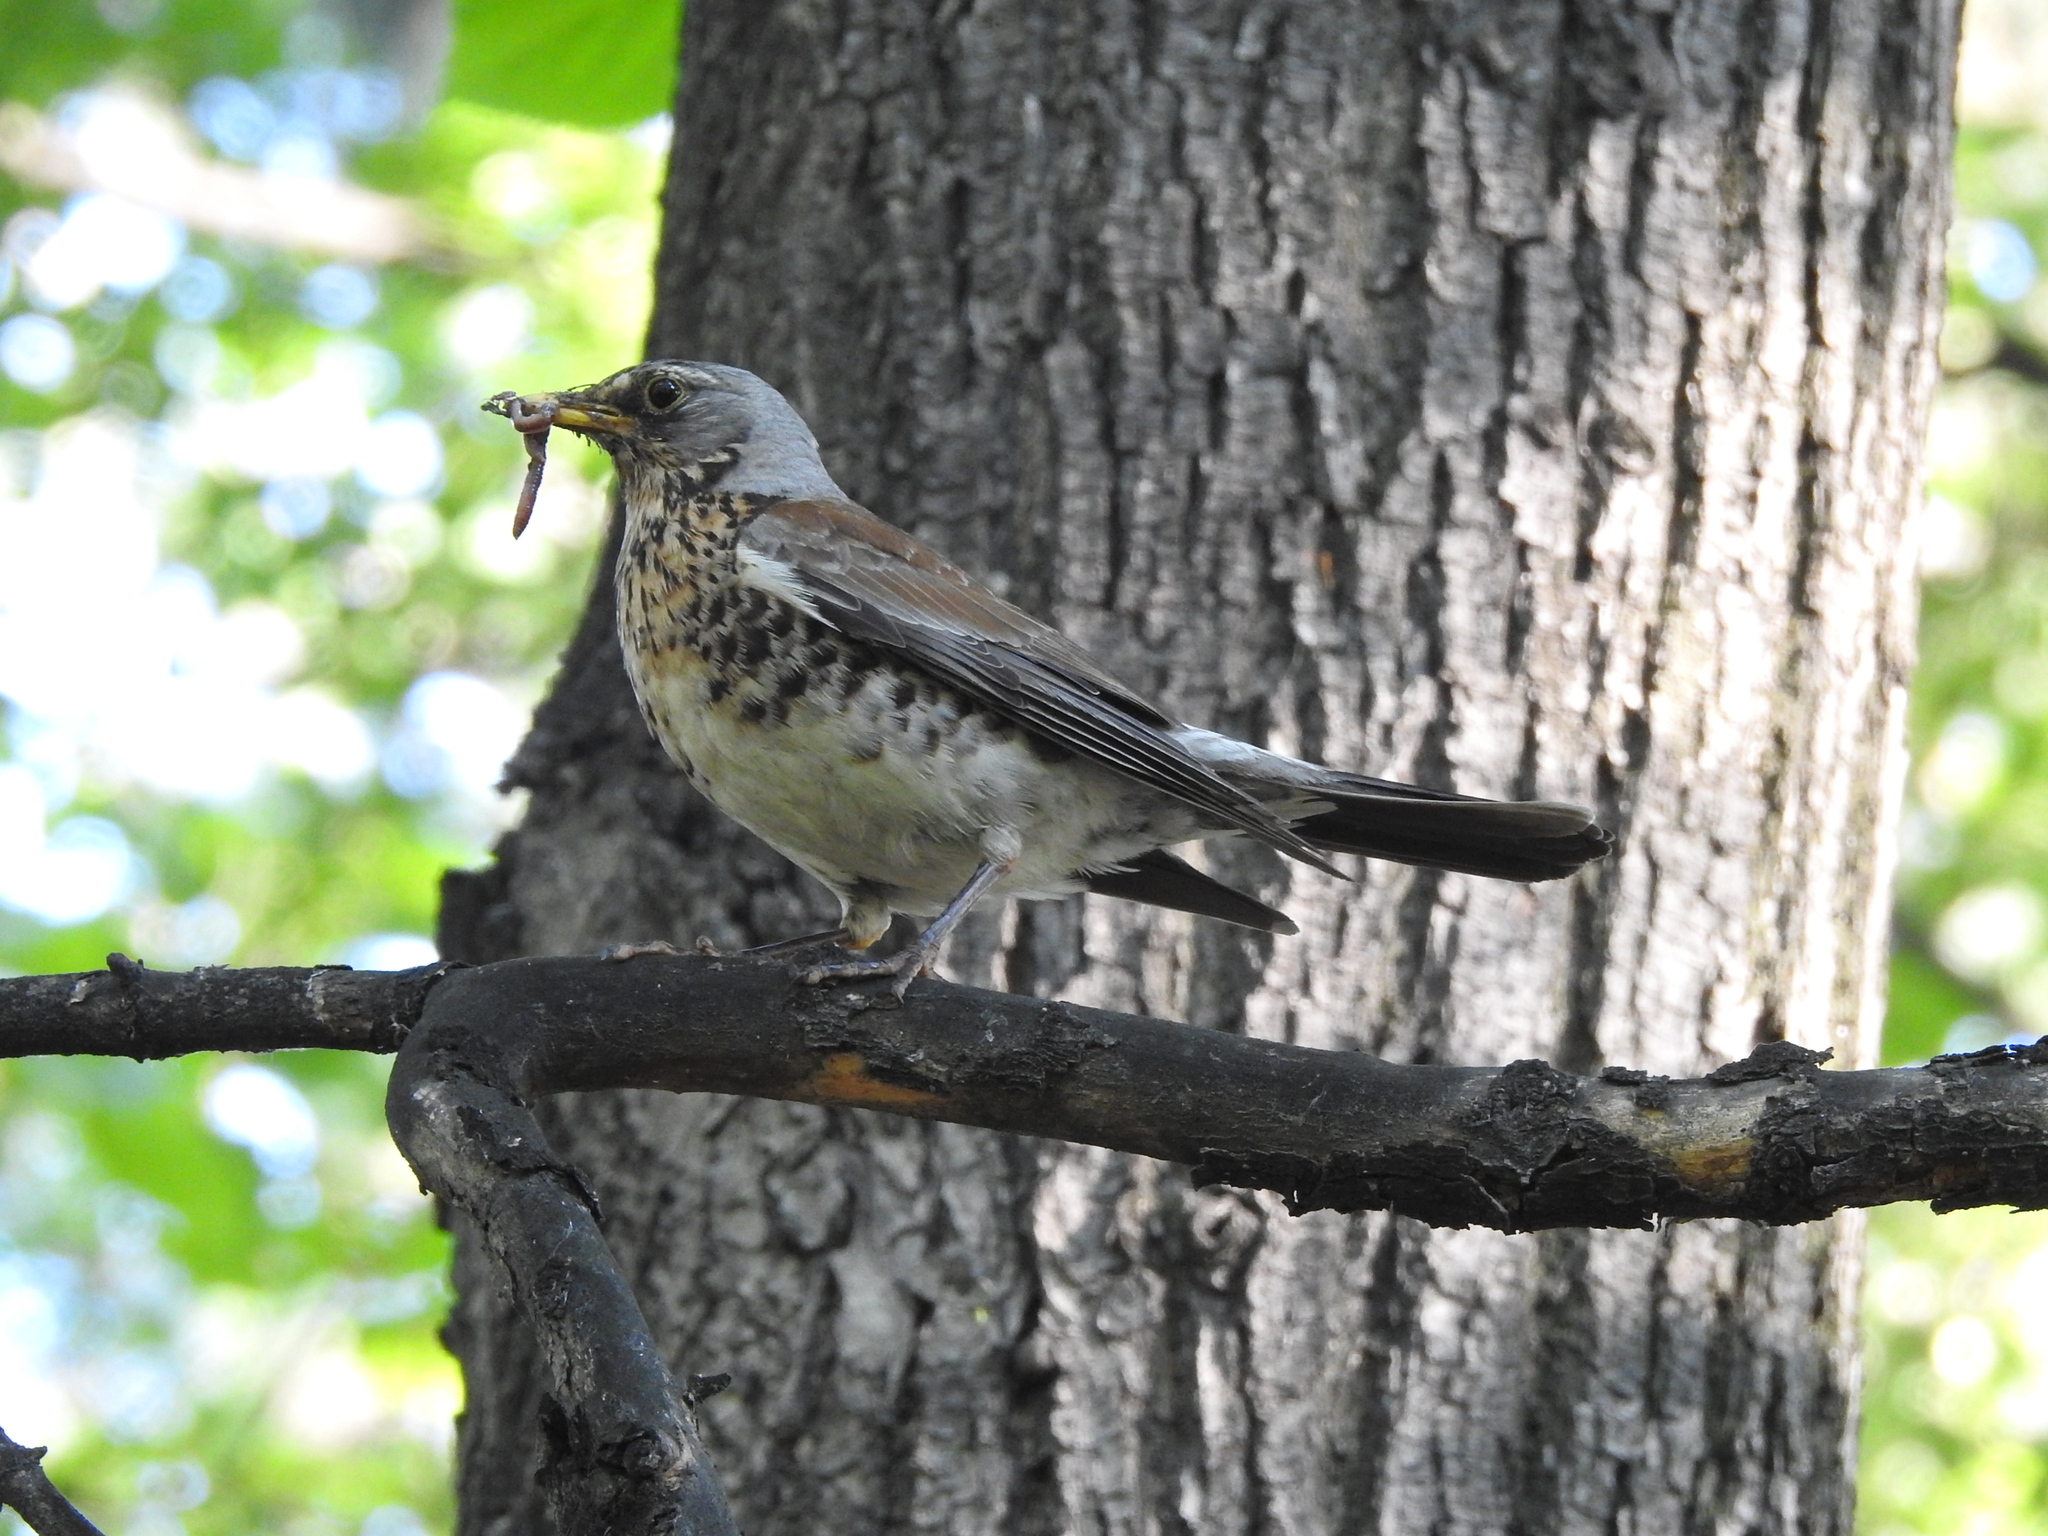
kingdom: Animalia
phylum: Chordata
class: Aves
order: Passeriformes
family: Turdidae
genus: Turdus
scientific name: Turdus pilaris
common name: Fieldfare
